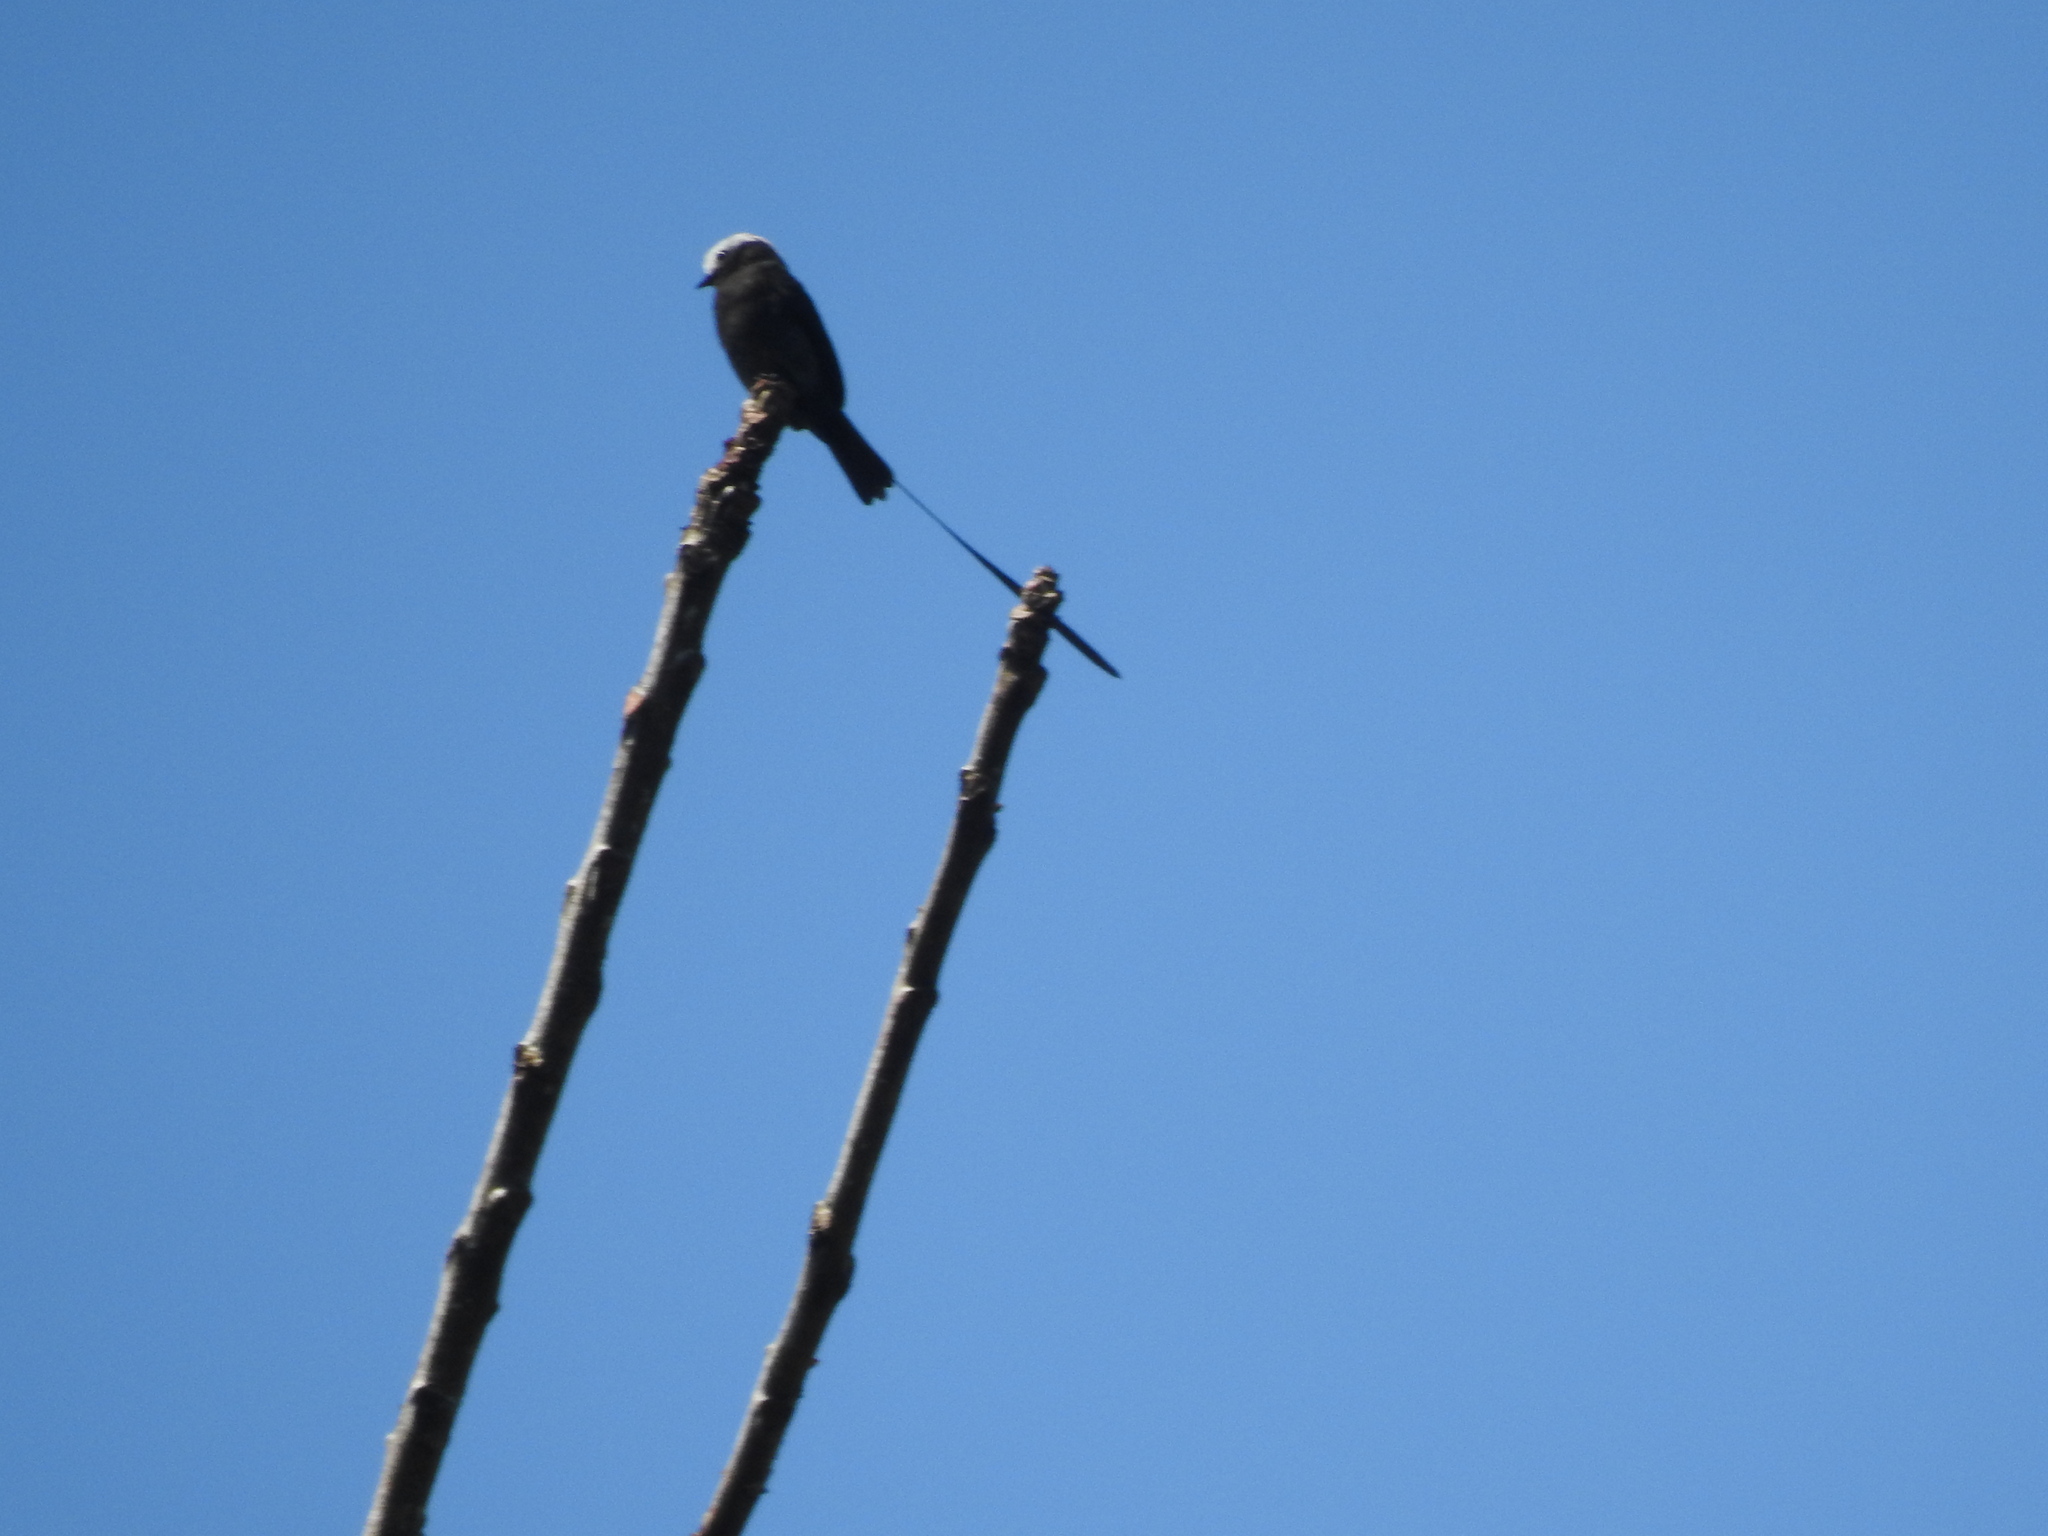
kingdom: Animalia
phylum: Chordata
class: Aves
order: Passeriformes
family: Tyrannidae
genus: Colonia
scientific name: Colonia colonus
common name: Long-tailed tyrant
